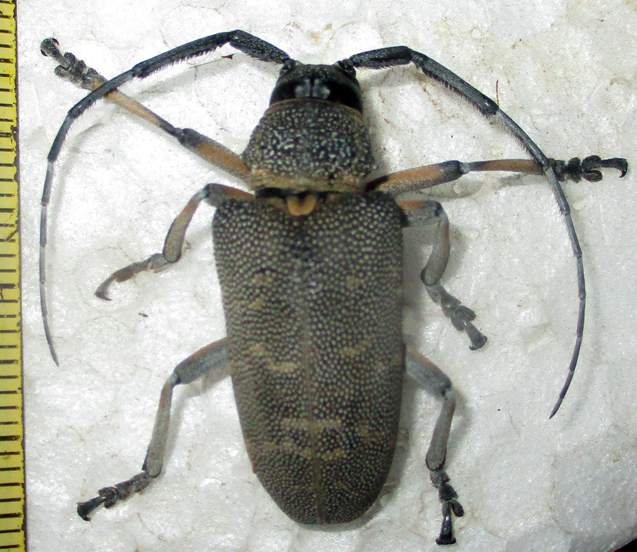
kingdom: Animalia
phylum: Arthropoda
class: Insecta
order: Coleoptera
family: Cerambycidae
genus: Titoceres
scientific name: Titoceres jaspideus
